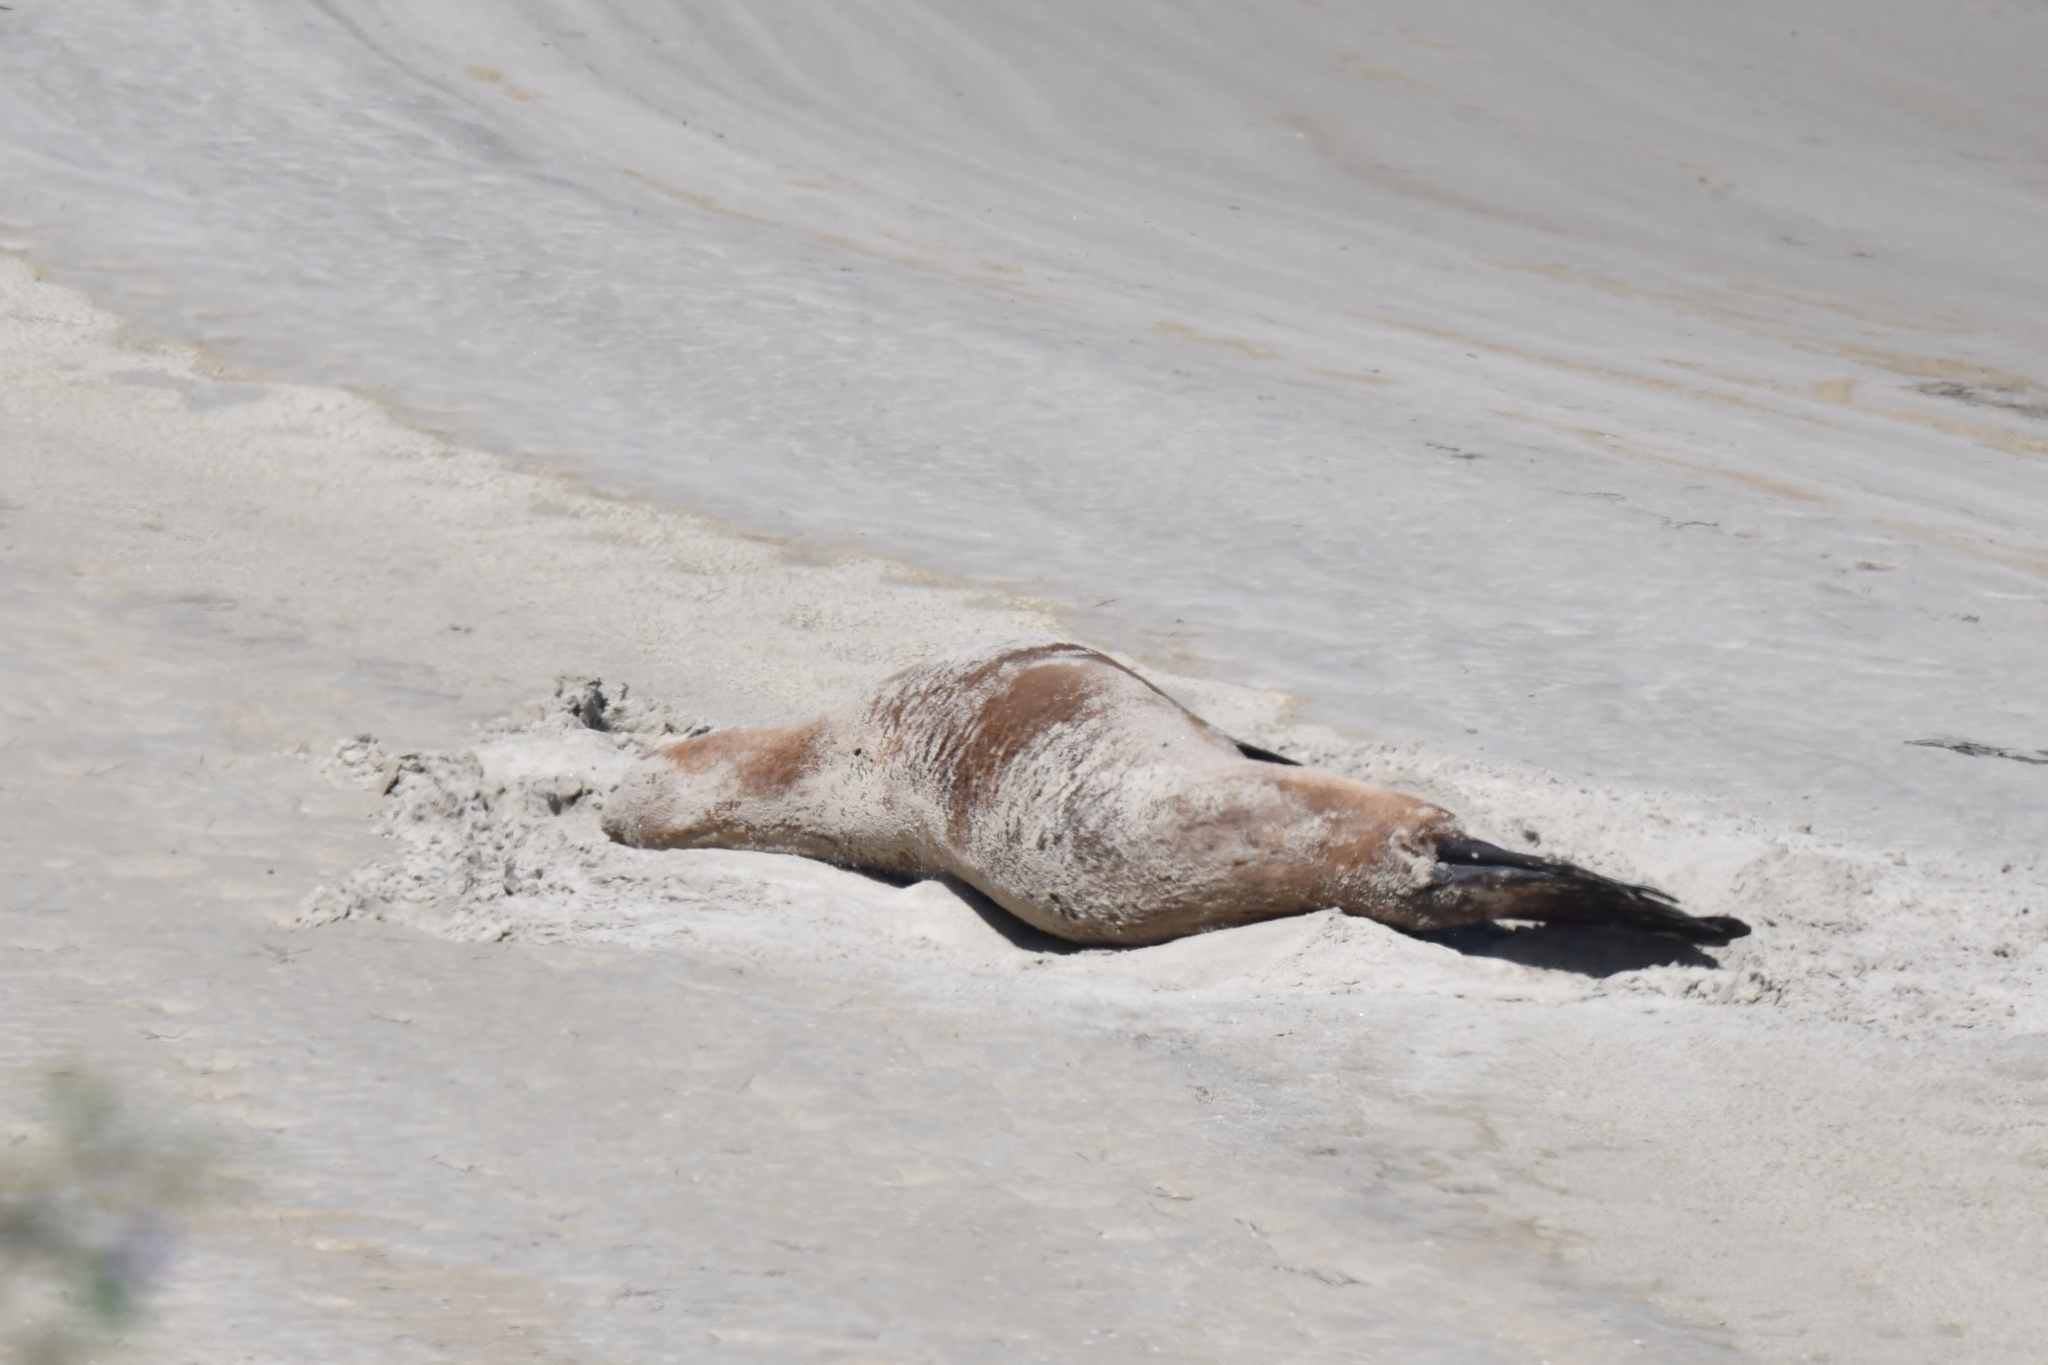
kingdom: Animalia
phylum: Chordata
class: Mammalia
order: Carnivora
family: Otariidae
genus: Phocarctos
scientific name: Phocarctos hookeri
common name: New zealand sea lion
